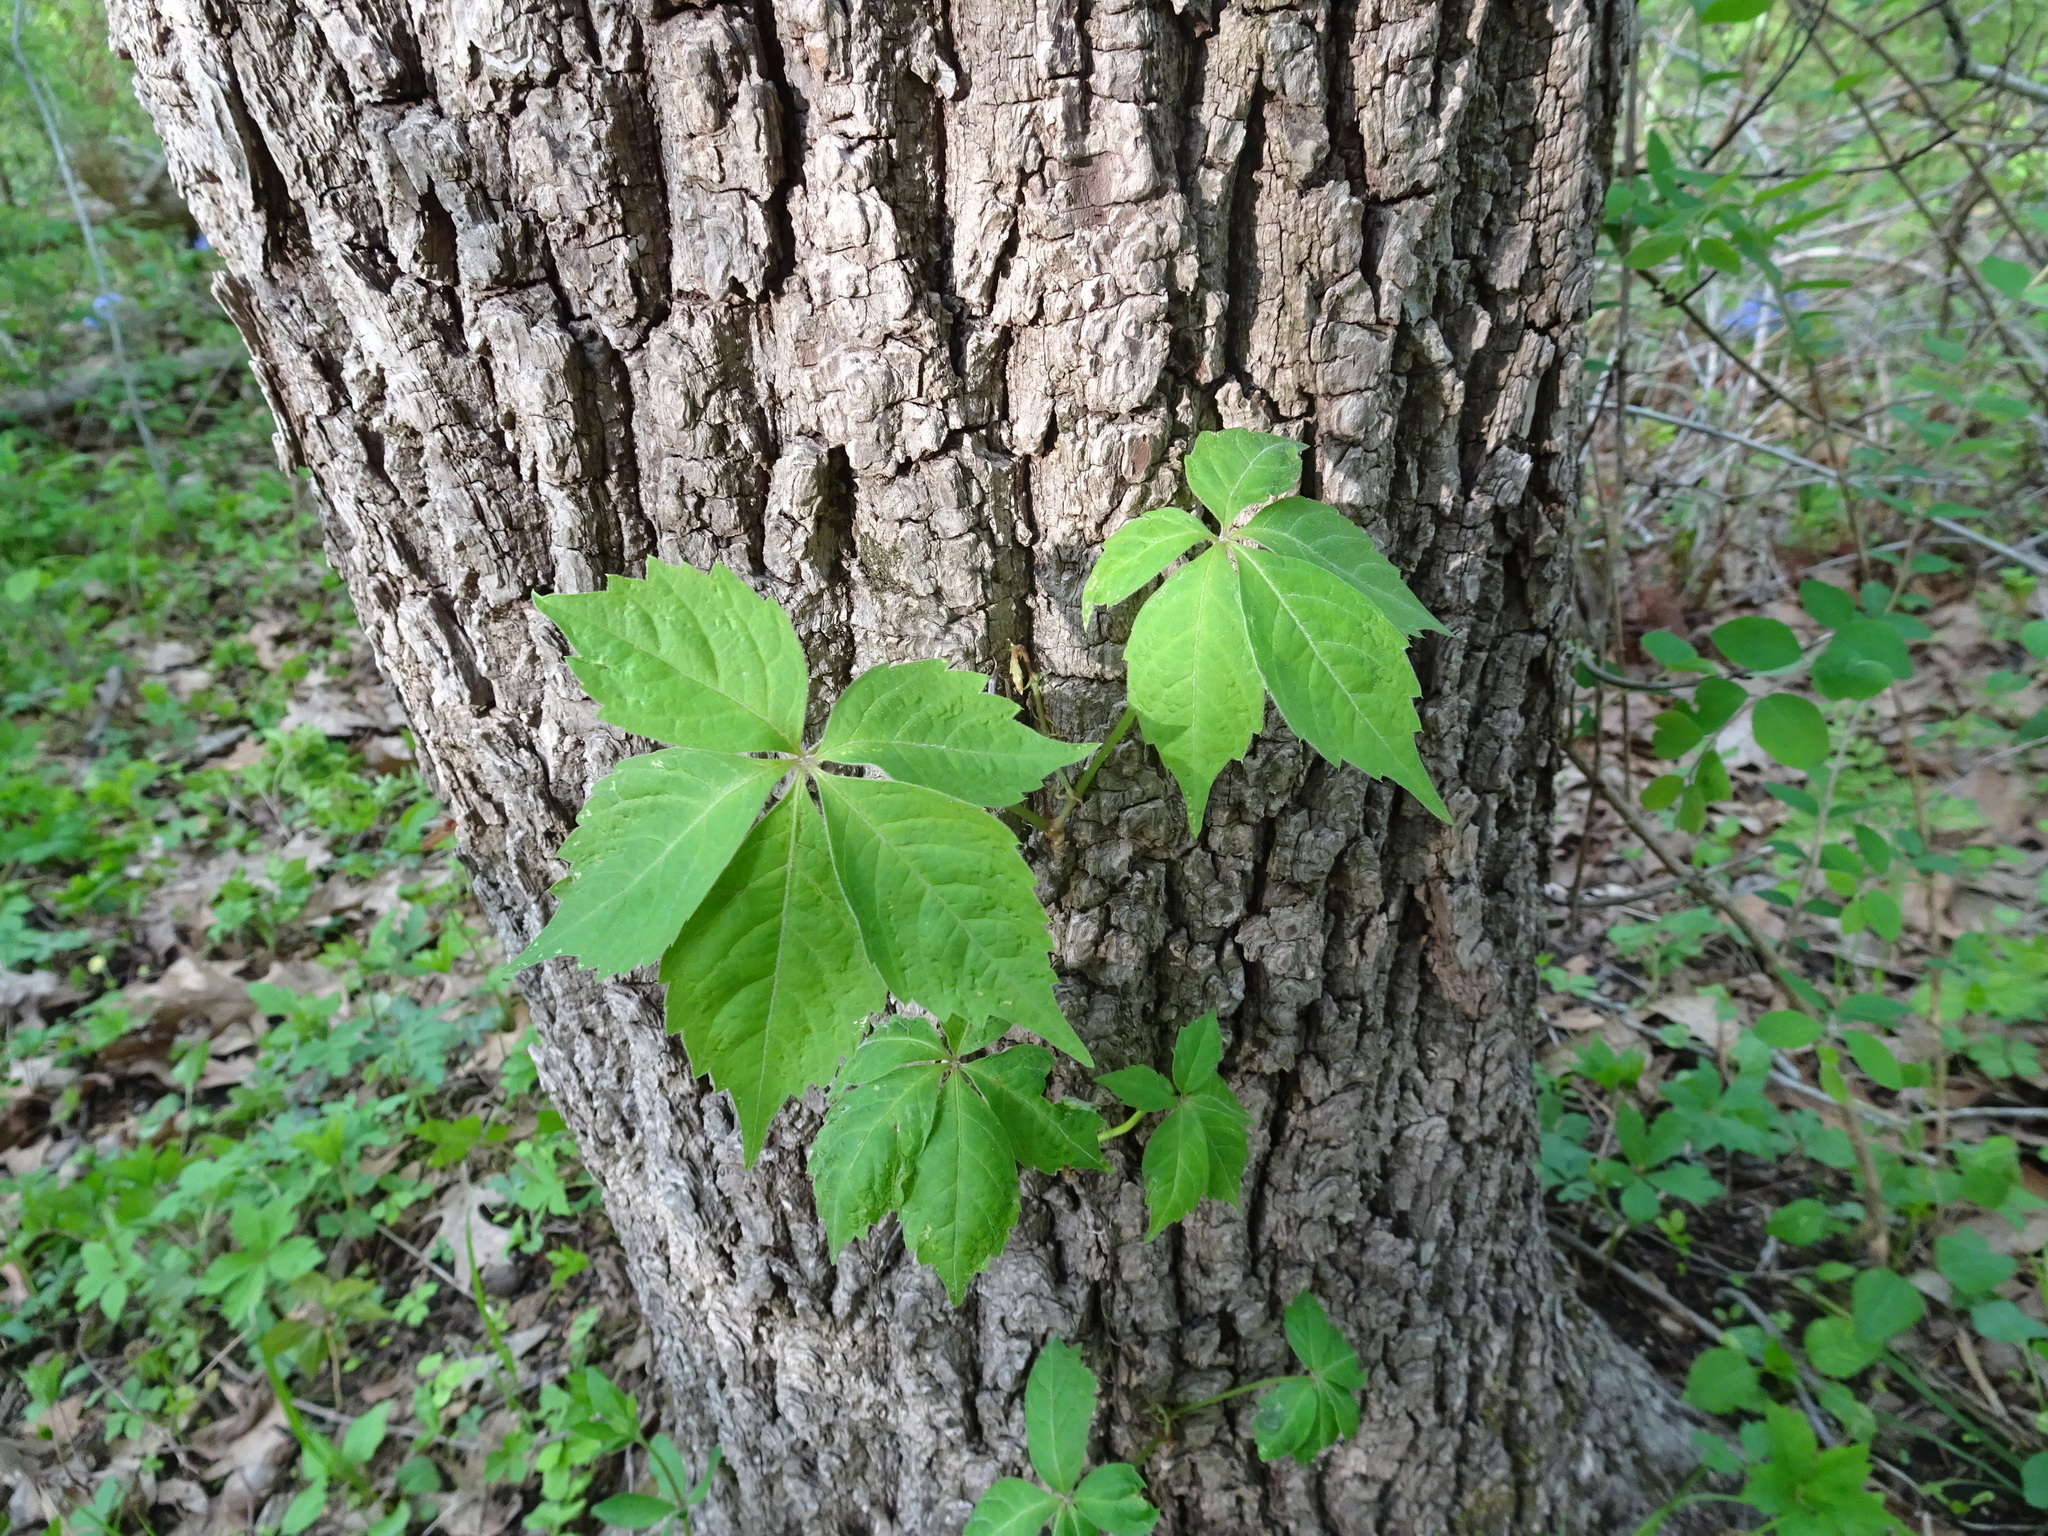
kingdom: Plantae
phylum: Tracheophyta
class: Magnoliopsida
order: Vitales
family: Vitaceae
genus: Parthenocissus
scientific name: Parthenocissus quinquefolia
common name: Virginia-creeper
